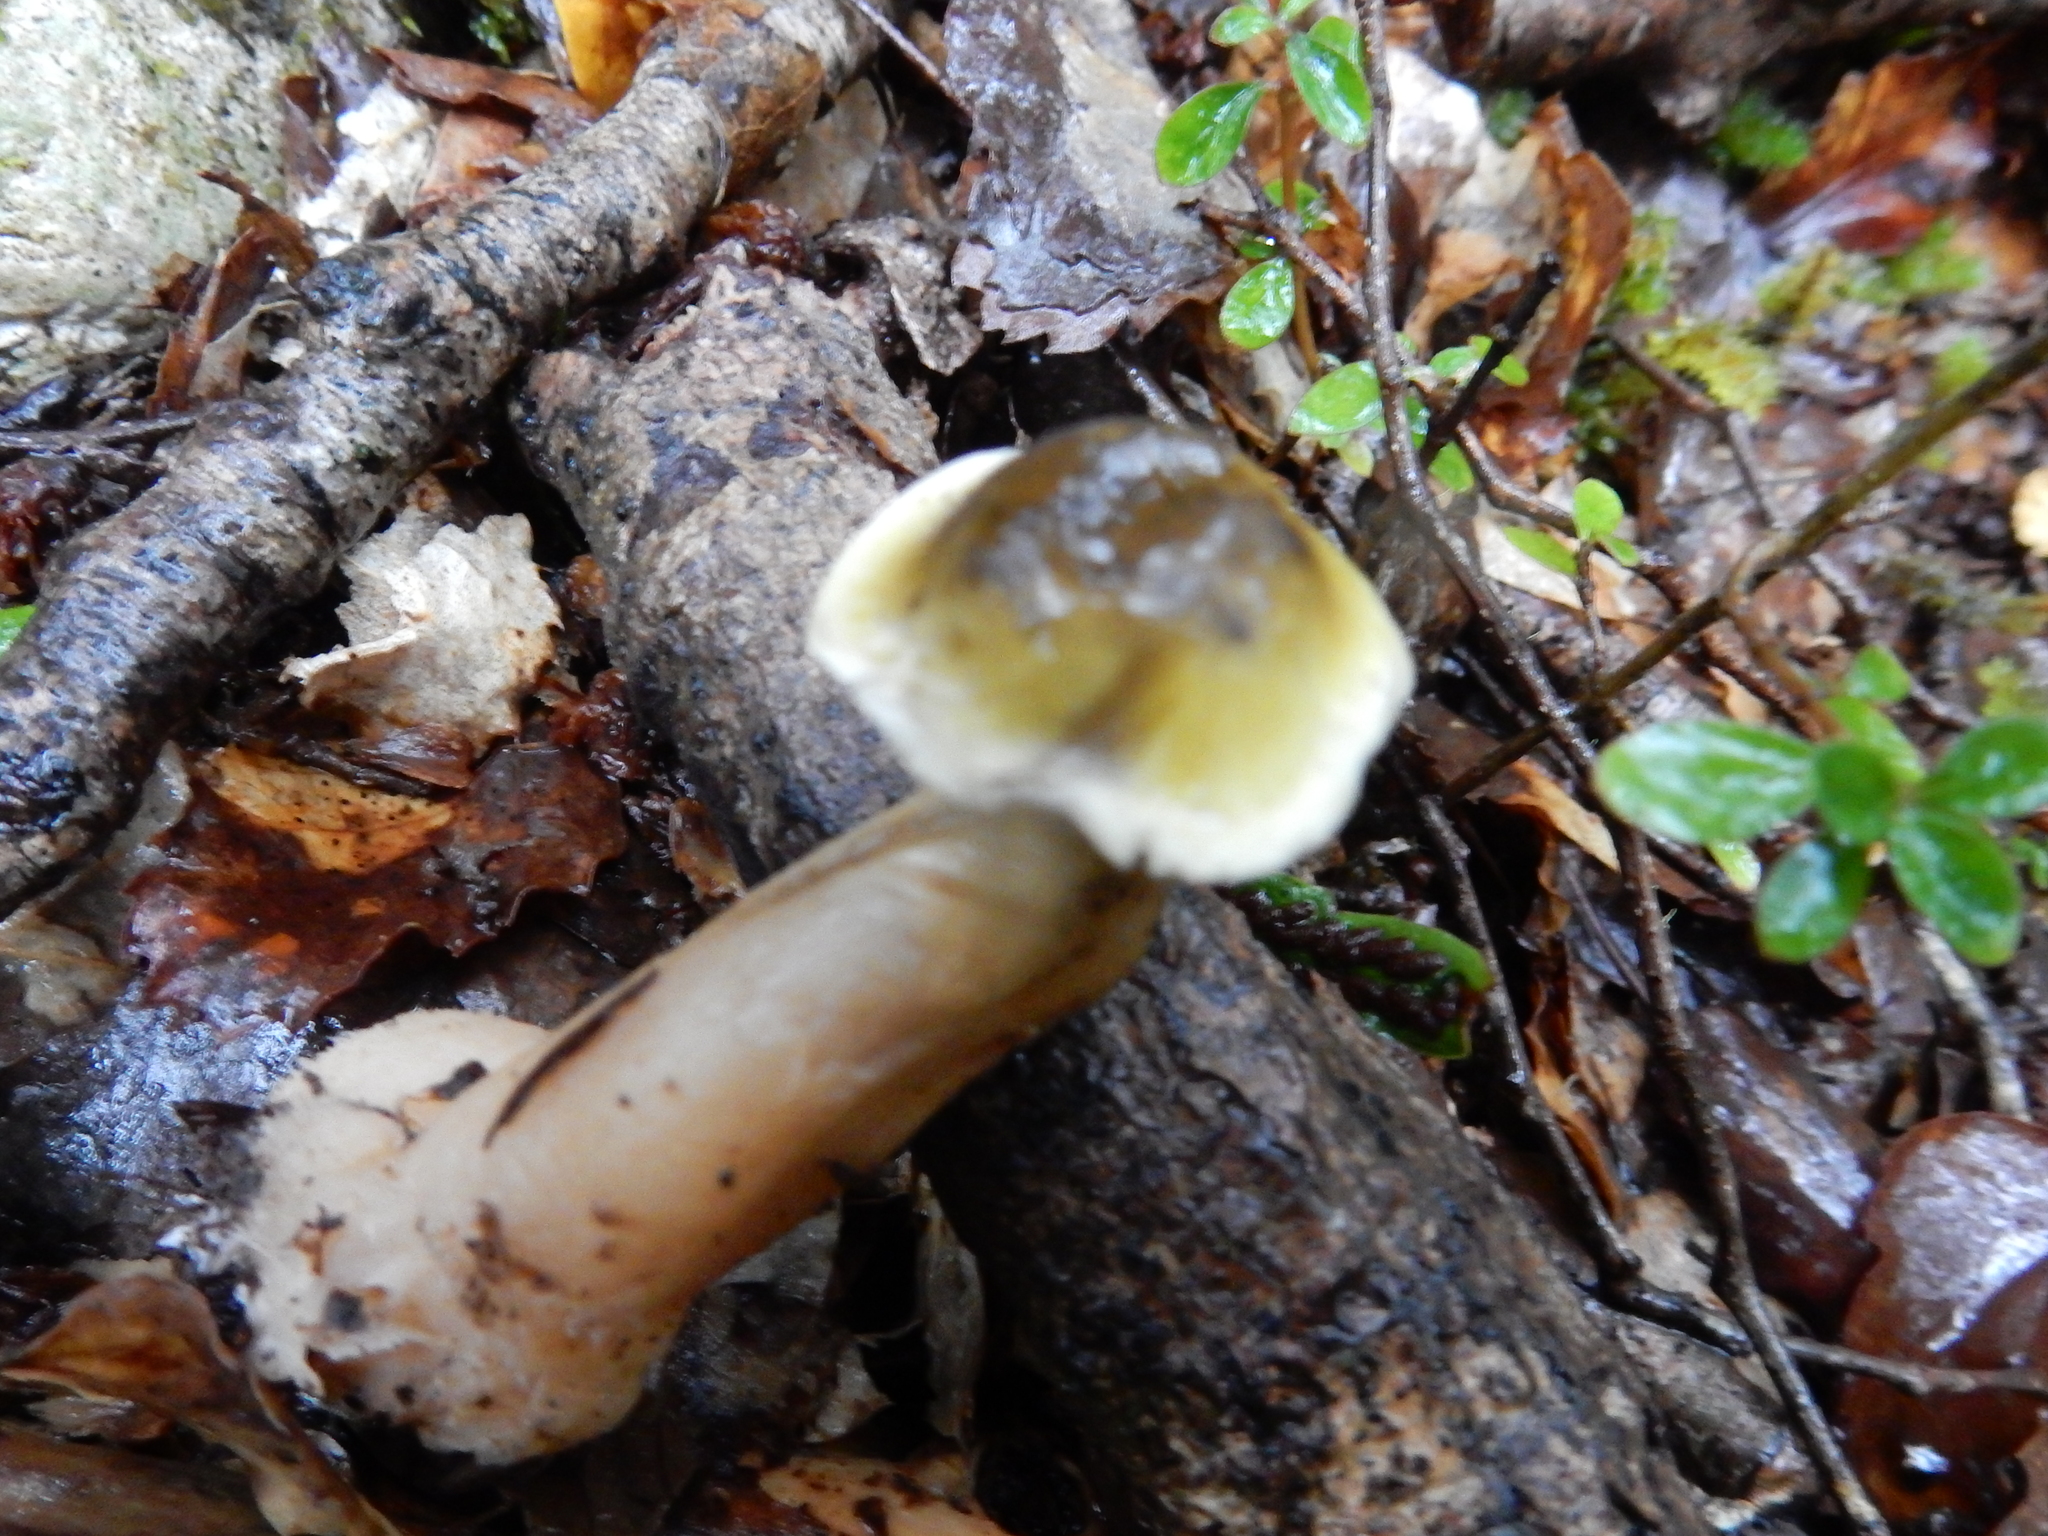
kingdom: Fungi
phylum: Basidiomycota
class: Agaricomycetes
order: Agaricales
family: Tricholomataceae
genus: Tricholoma
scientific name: Tricholoma viridiolivaceum
